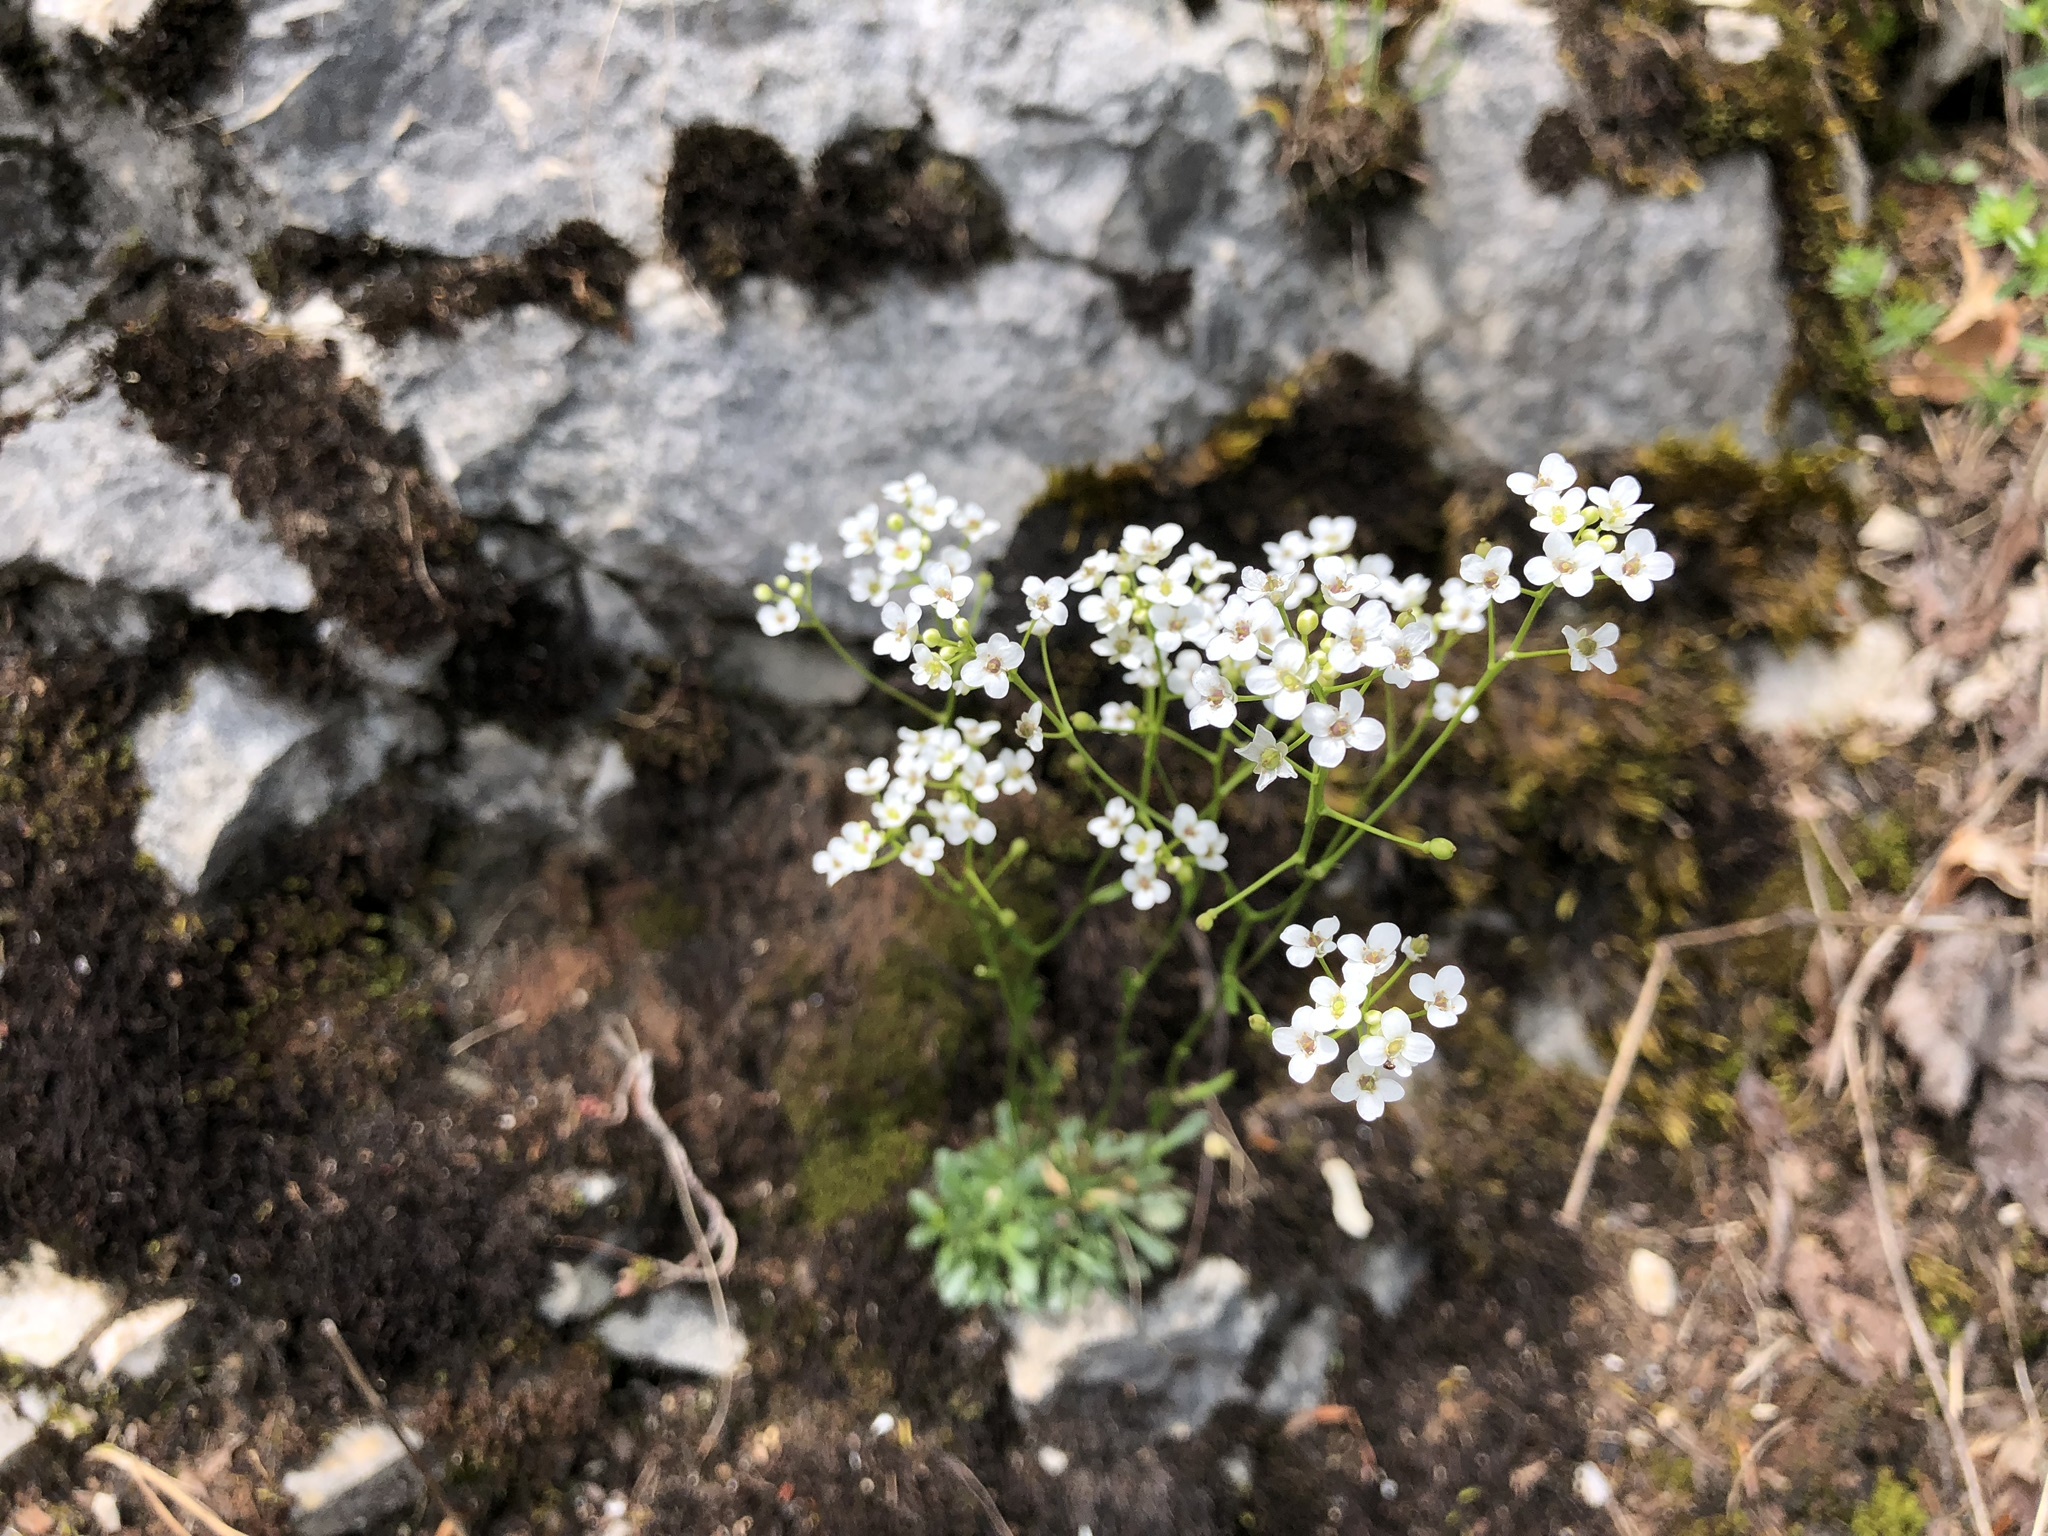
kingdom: Plantae
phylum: Tracheophyta
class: Magnoliopsida
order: Brassicales
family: Brassicaceae
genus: Kernera
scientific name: Kernera saxatilis
